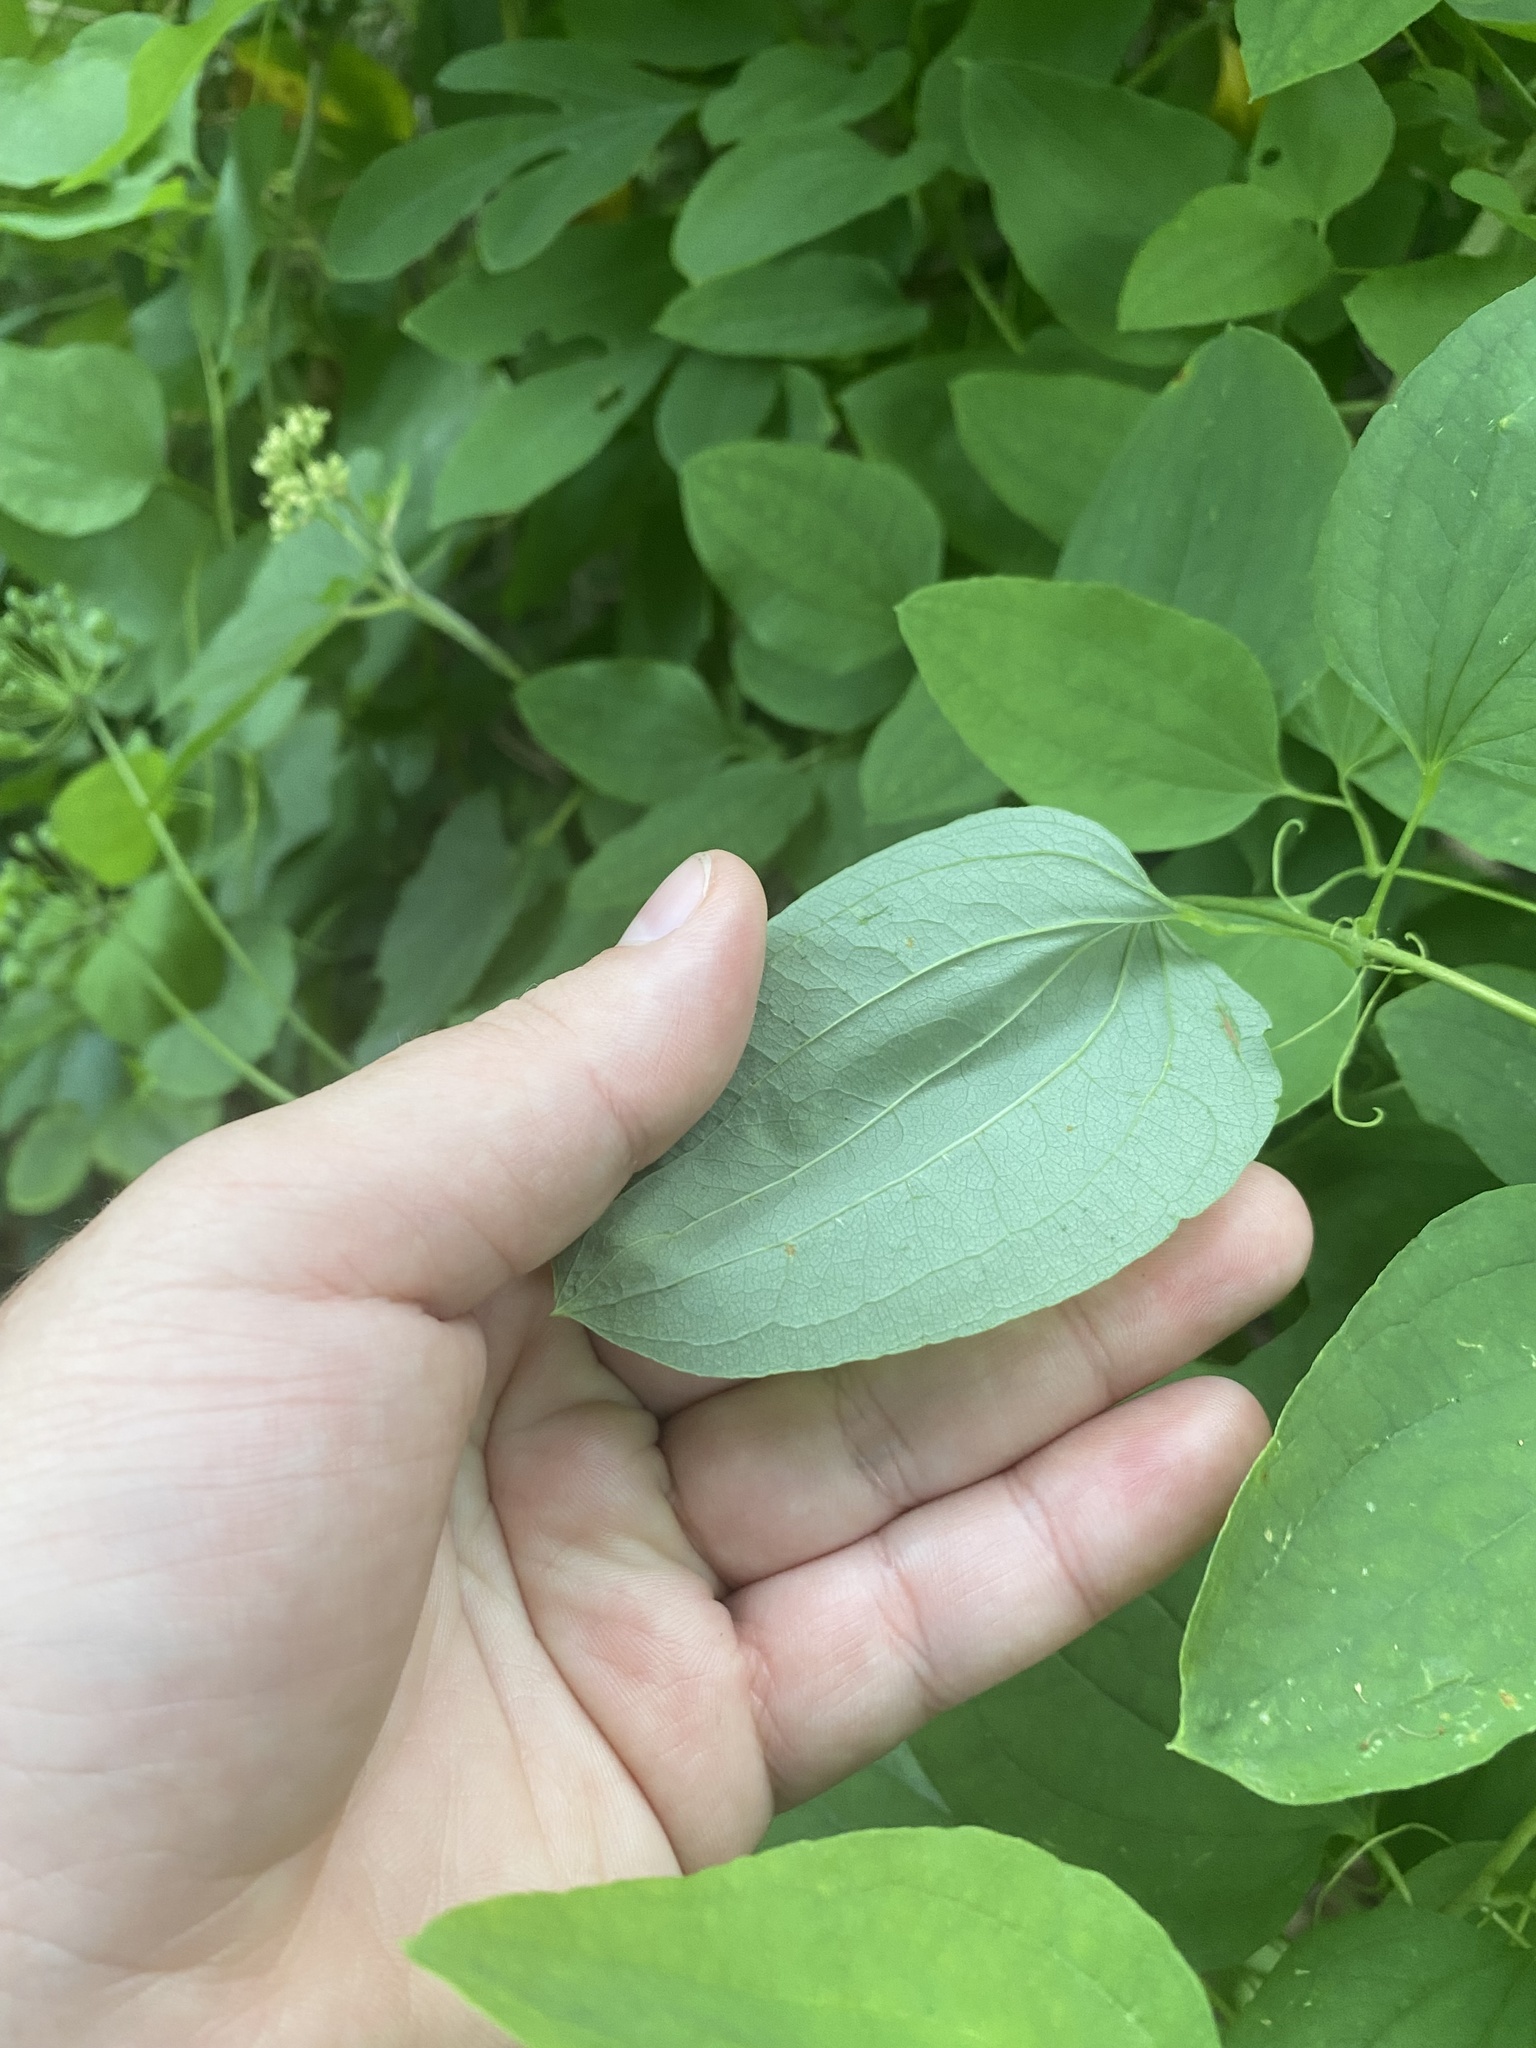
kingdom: Plantae
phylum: Tracheophyta
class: Liliopsida
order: Liliales
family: Smilacaceae
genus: Smilax
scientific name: Smilax herbacea
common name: Jacob's-ladder
